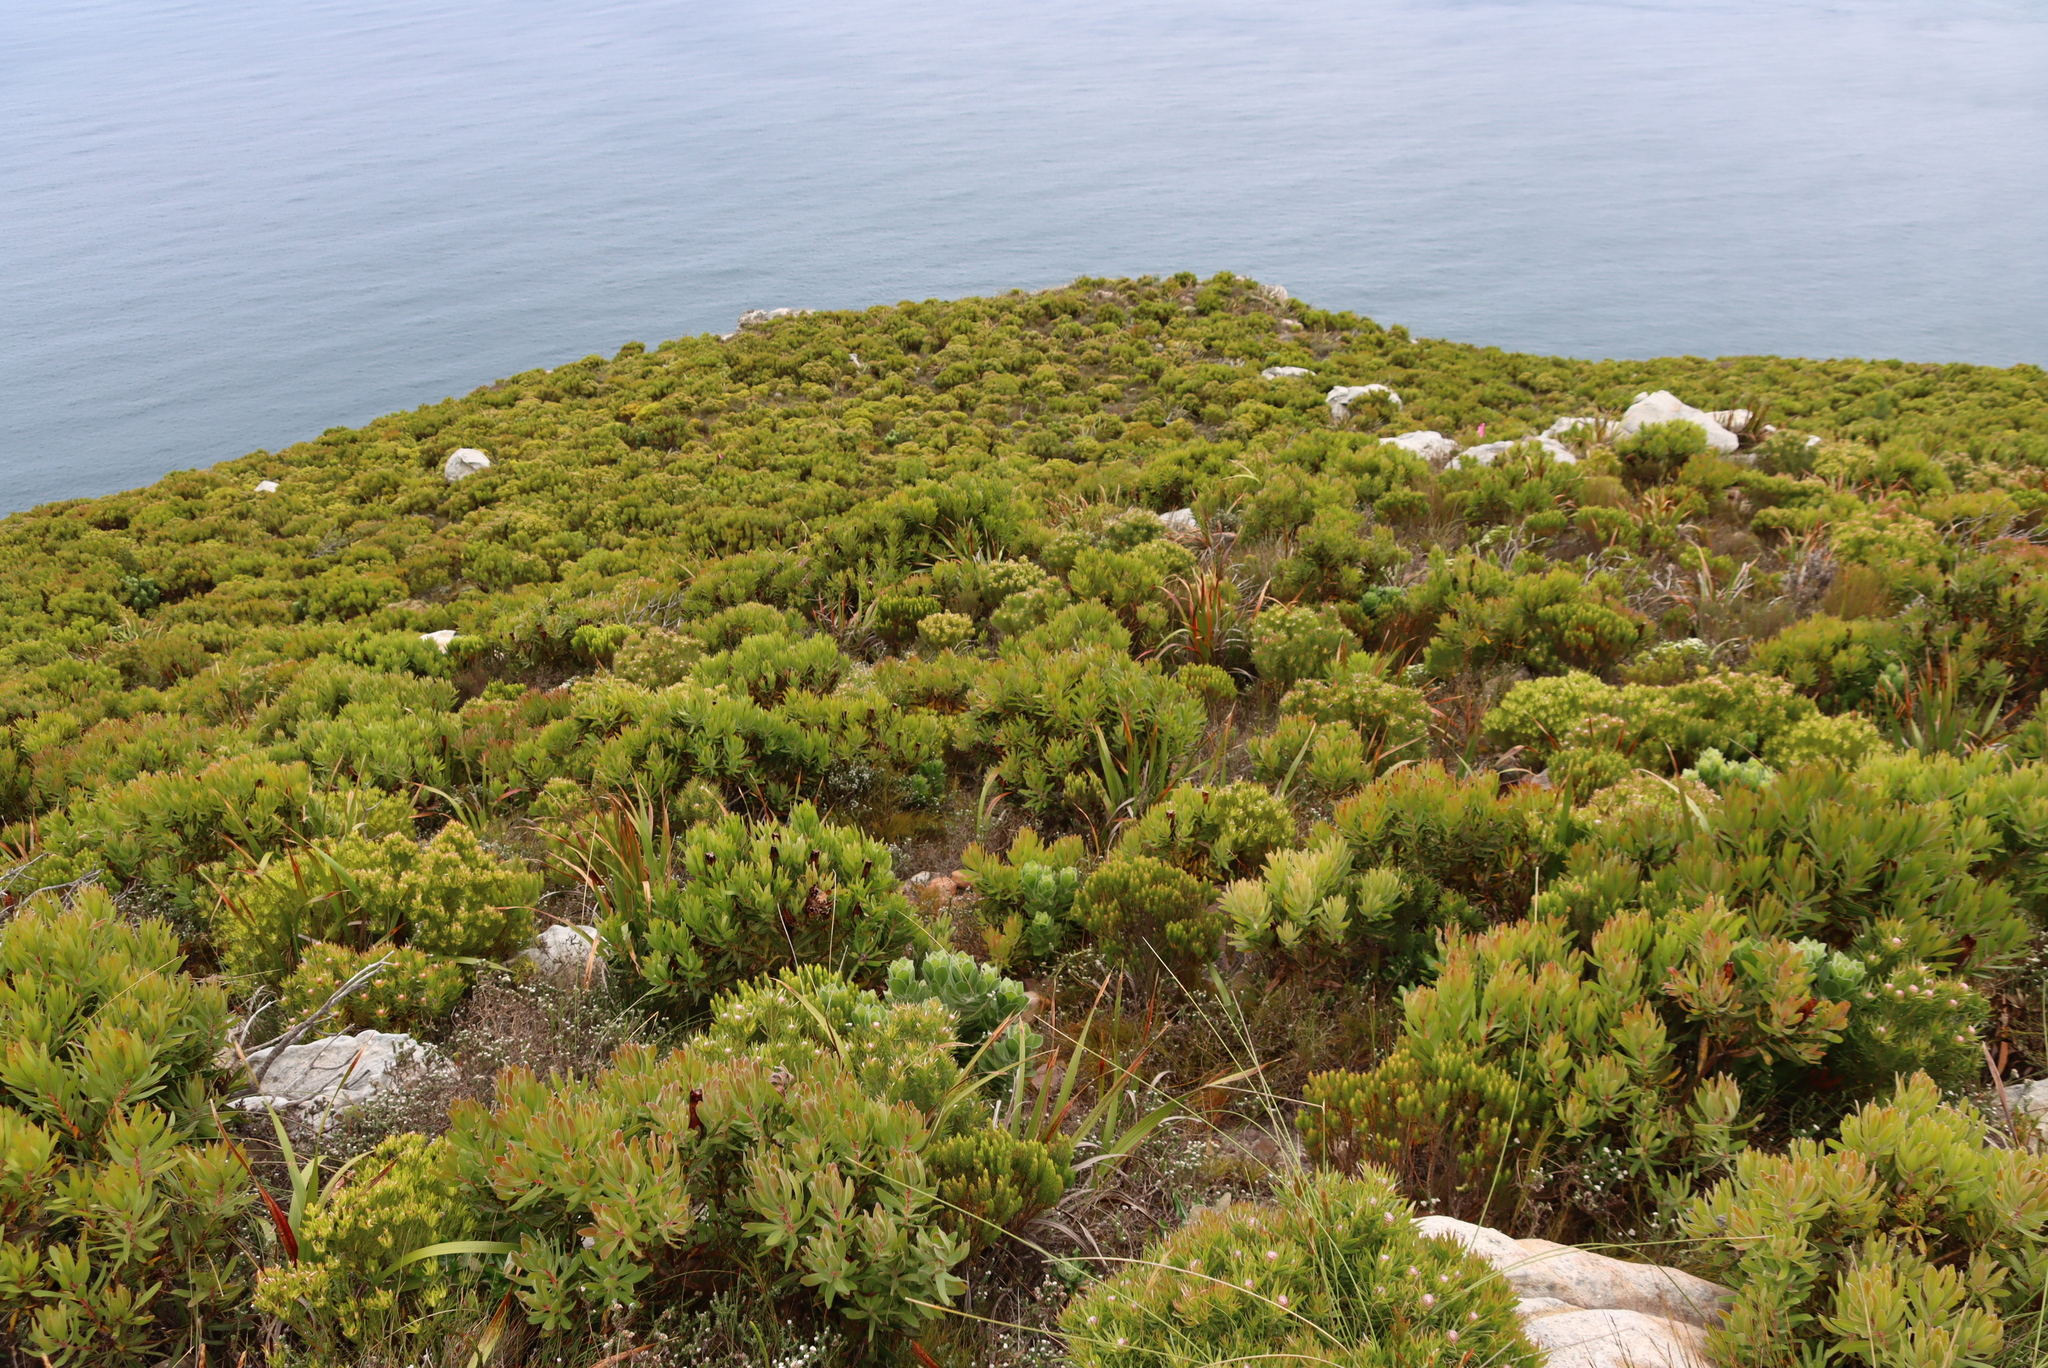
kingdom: Plantae
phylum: Tracheophyta
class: Magnoliopsida
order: Proteales
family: Proteaceae
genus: Protea
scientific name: Protea lepidocarpodendron
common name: Black-bearded protea
